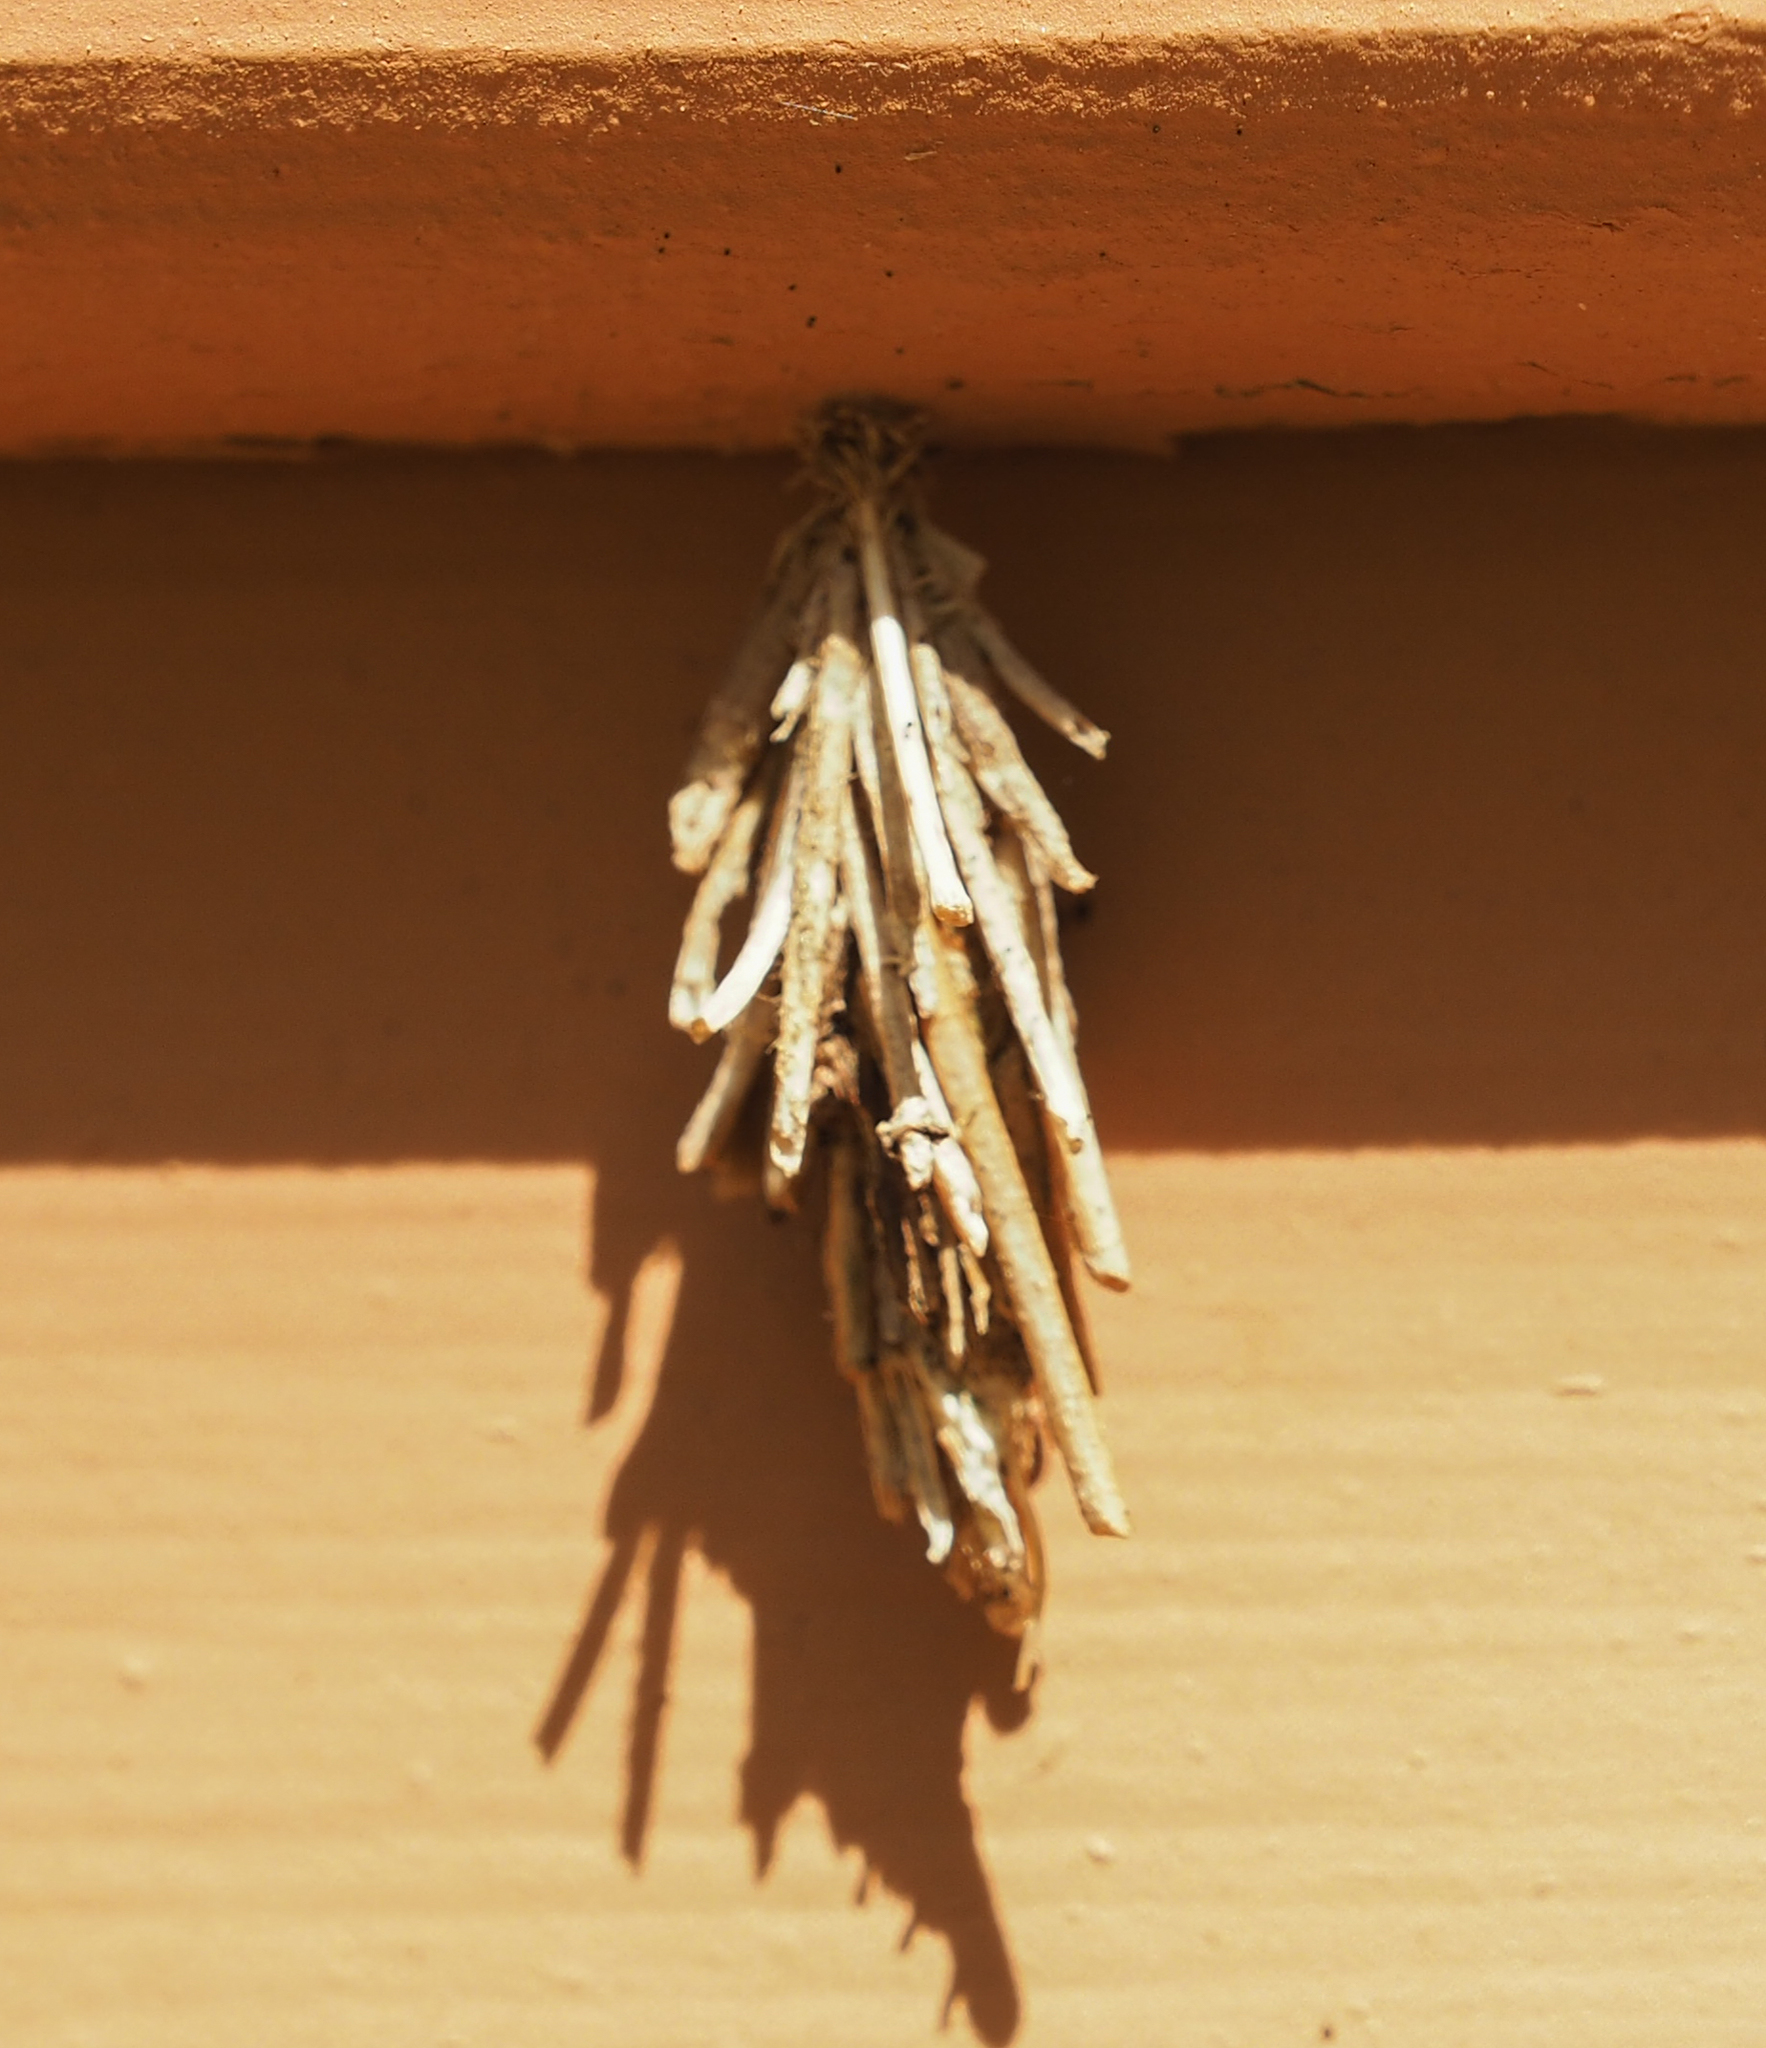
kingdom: Animalia
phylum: Arthropoda
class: Insecta
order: Lepidoptera
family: Psychidae
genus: Thyridopteryx
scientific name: Thyridopteryx ephemeraeformis
